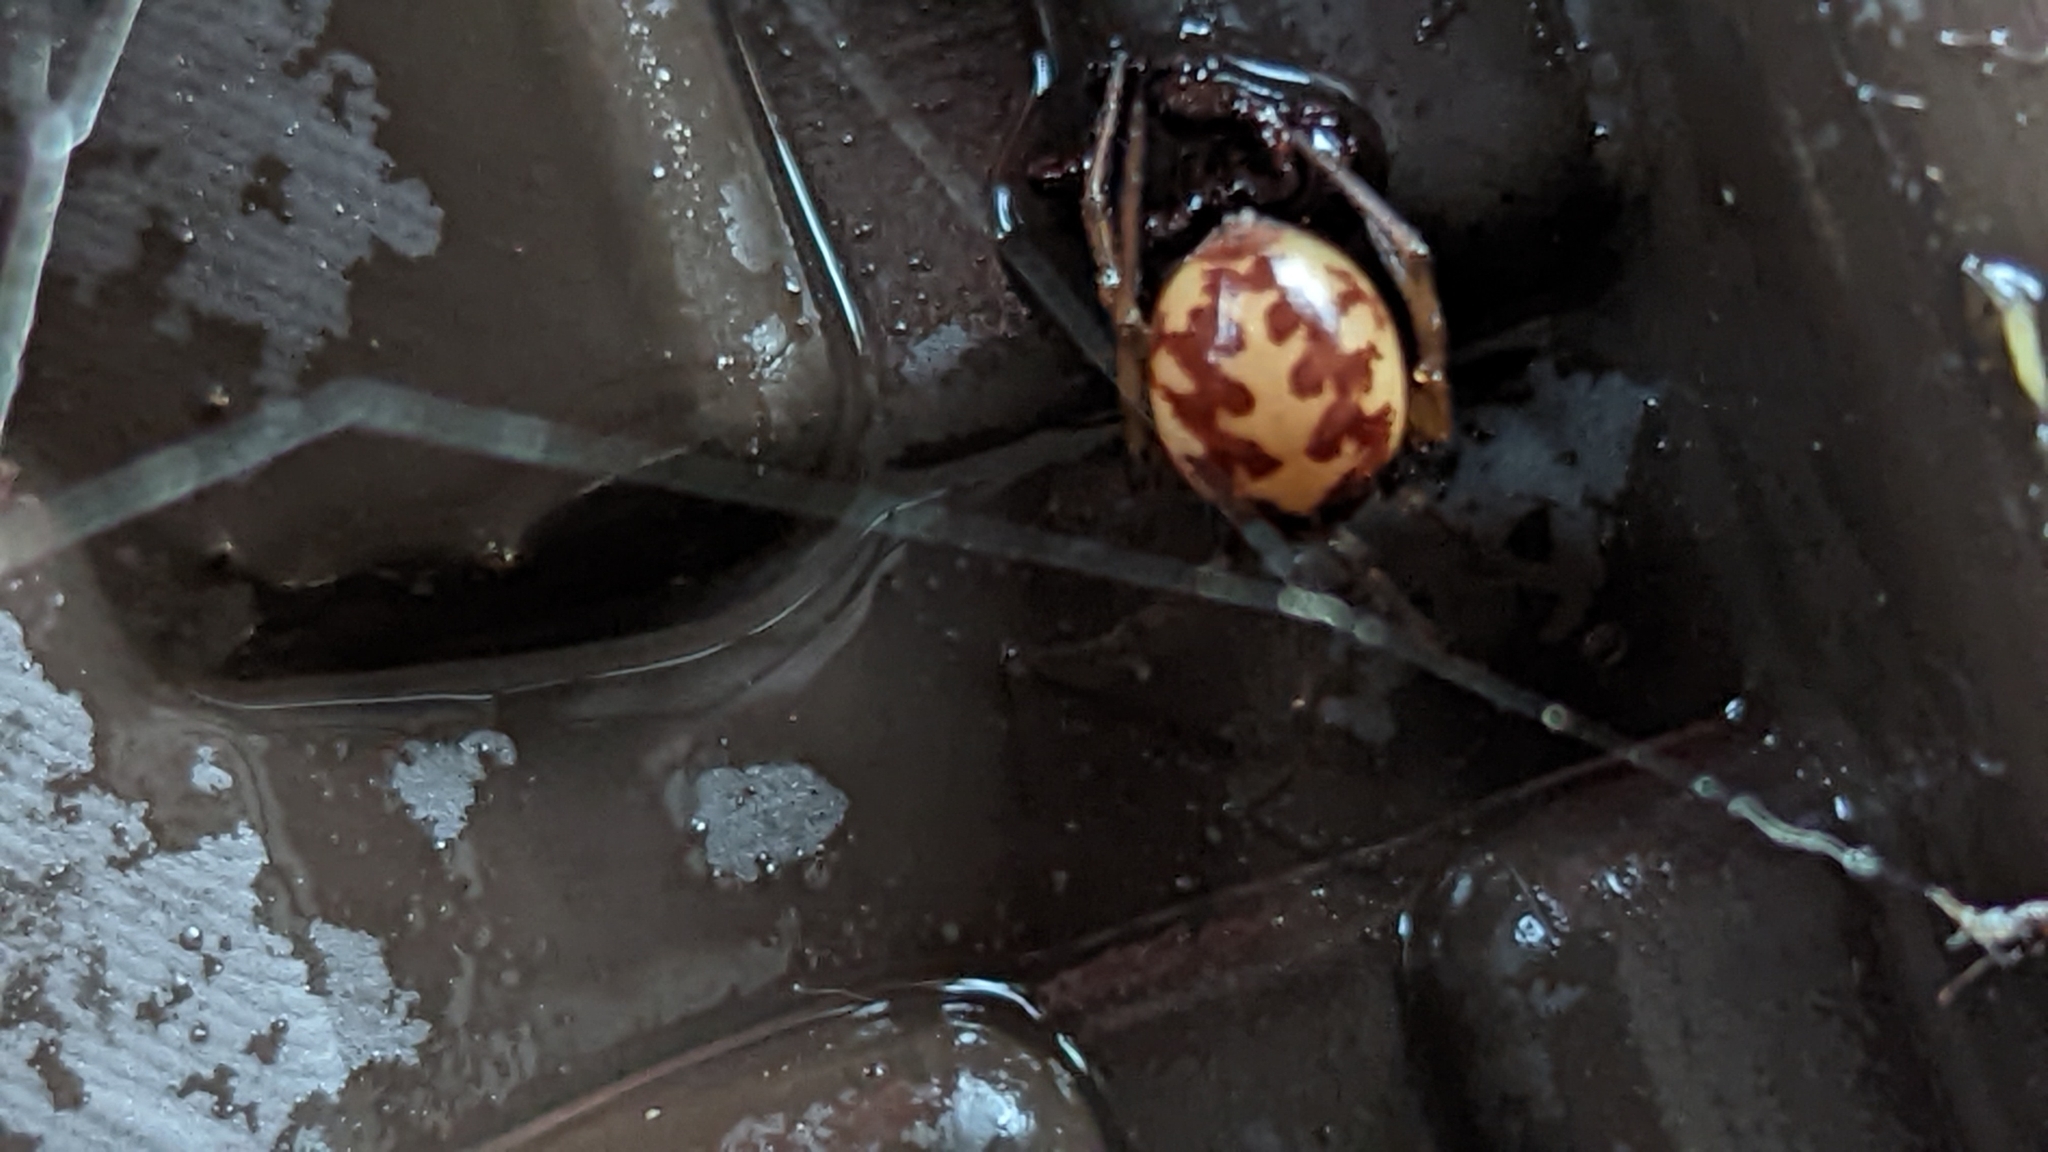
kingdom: Animalia
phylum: Arthropoda
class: Arachnida
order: Araneae
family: Theridiidae
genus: Steatoda
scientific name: Steatoda triangulosa
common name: Triangulate bud spider
